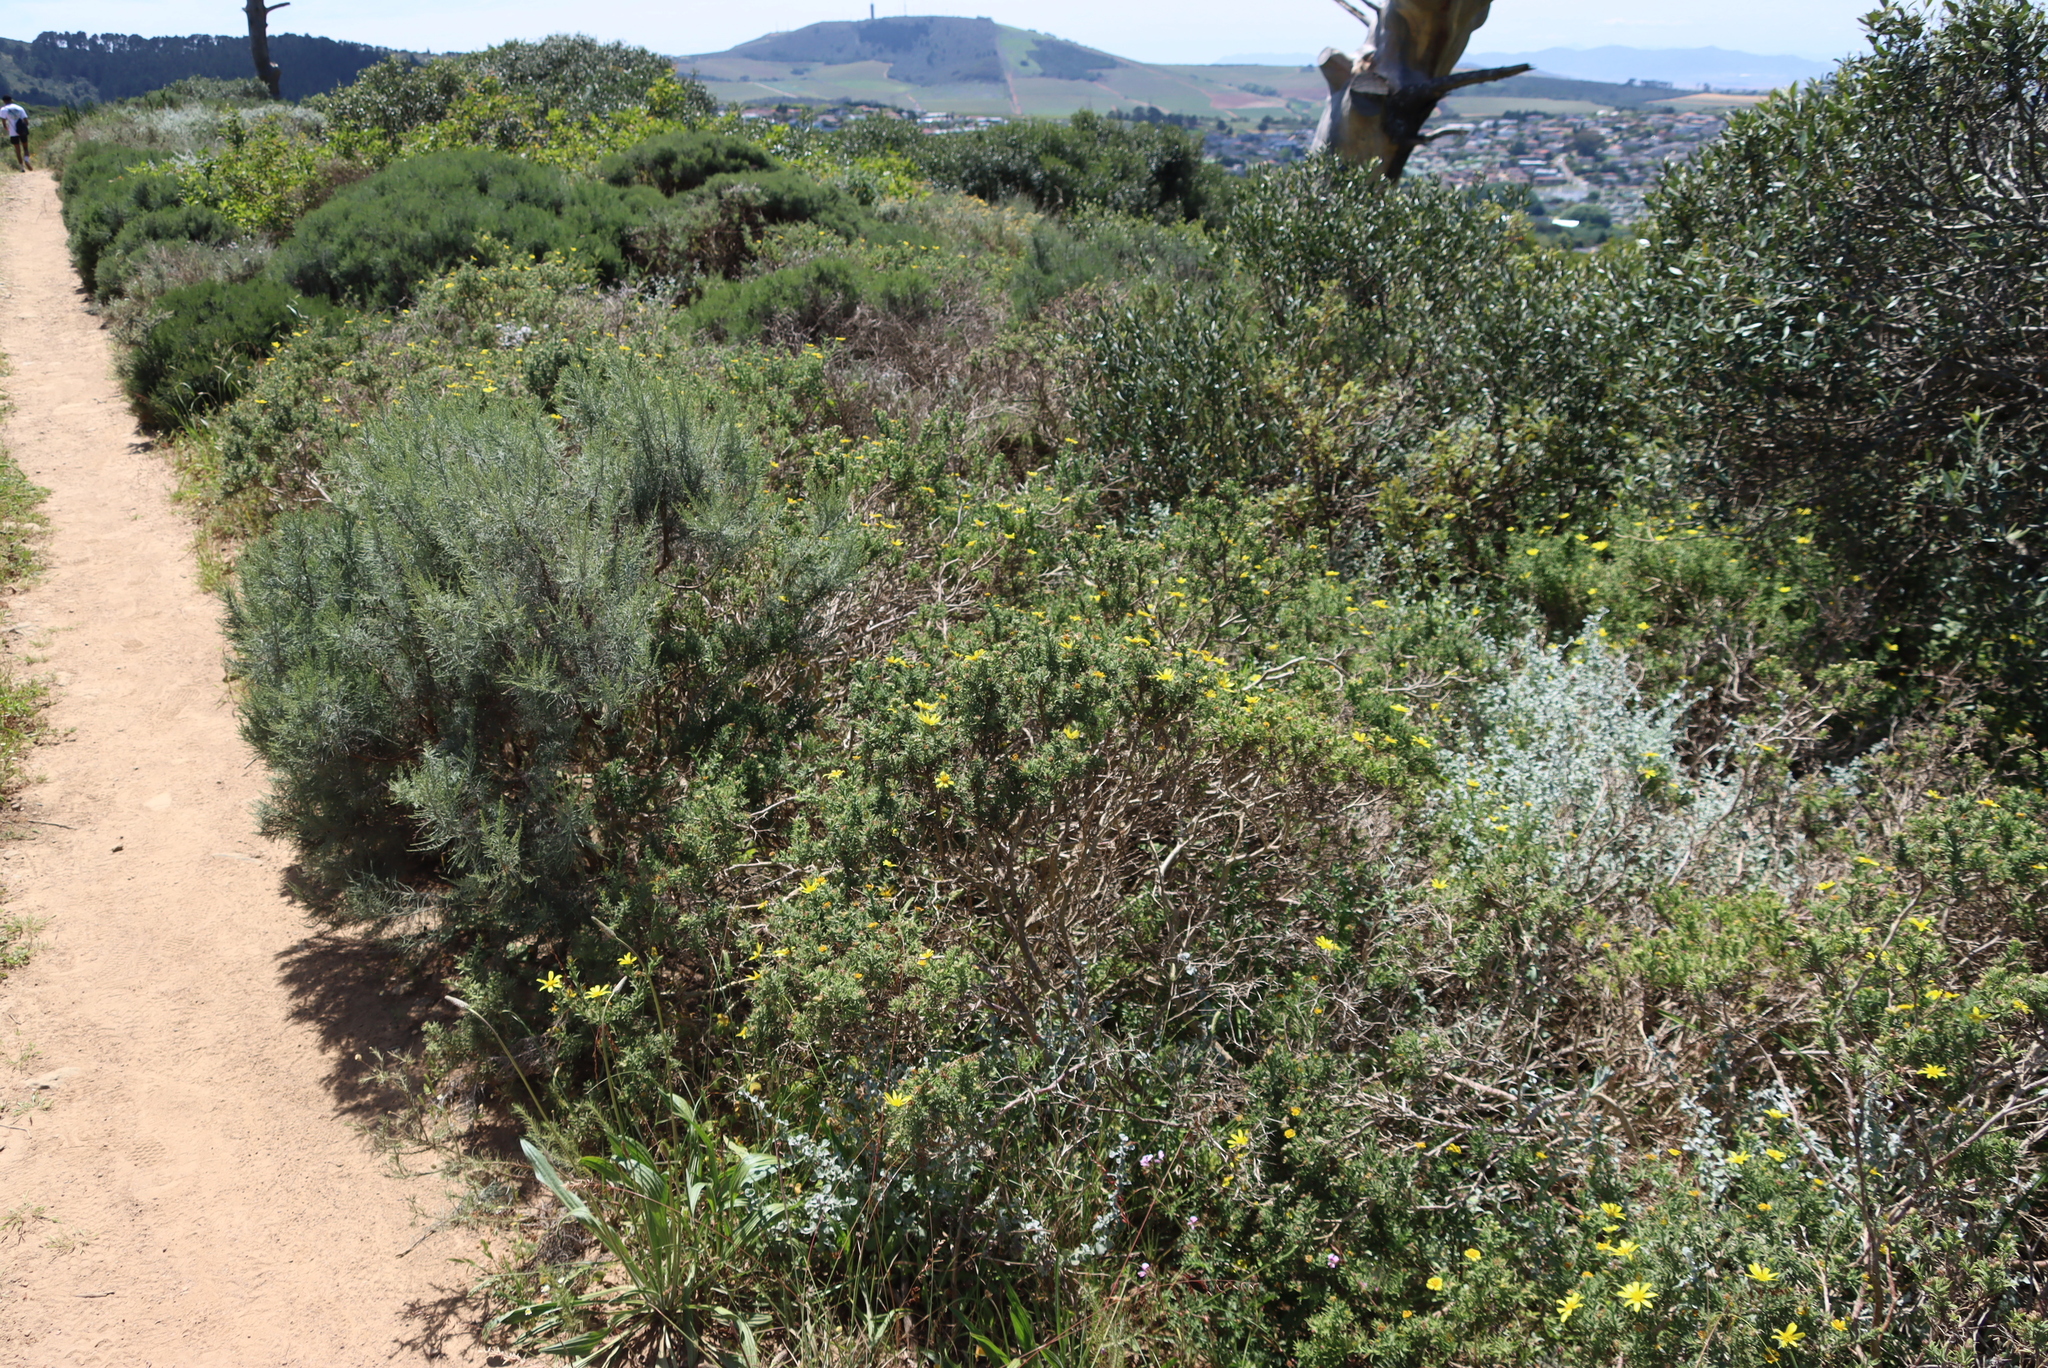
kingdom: Plantae
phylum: Tracheophyta
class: Magnoliopsida
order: Asterales
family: Asteraceae
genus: Dicerothamnus
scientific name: Dicerothamnus rhinocerotis
